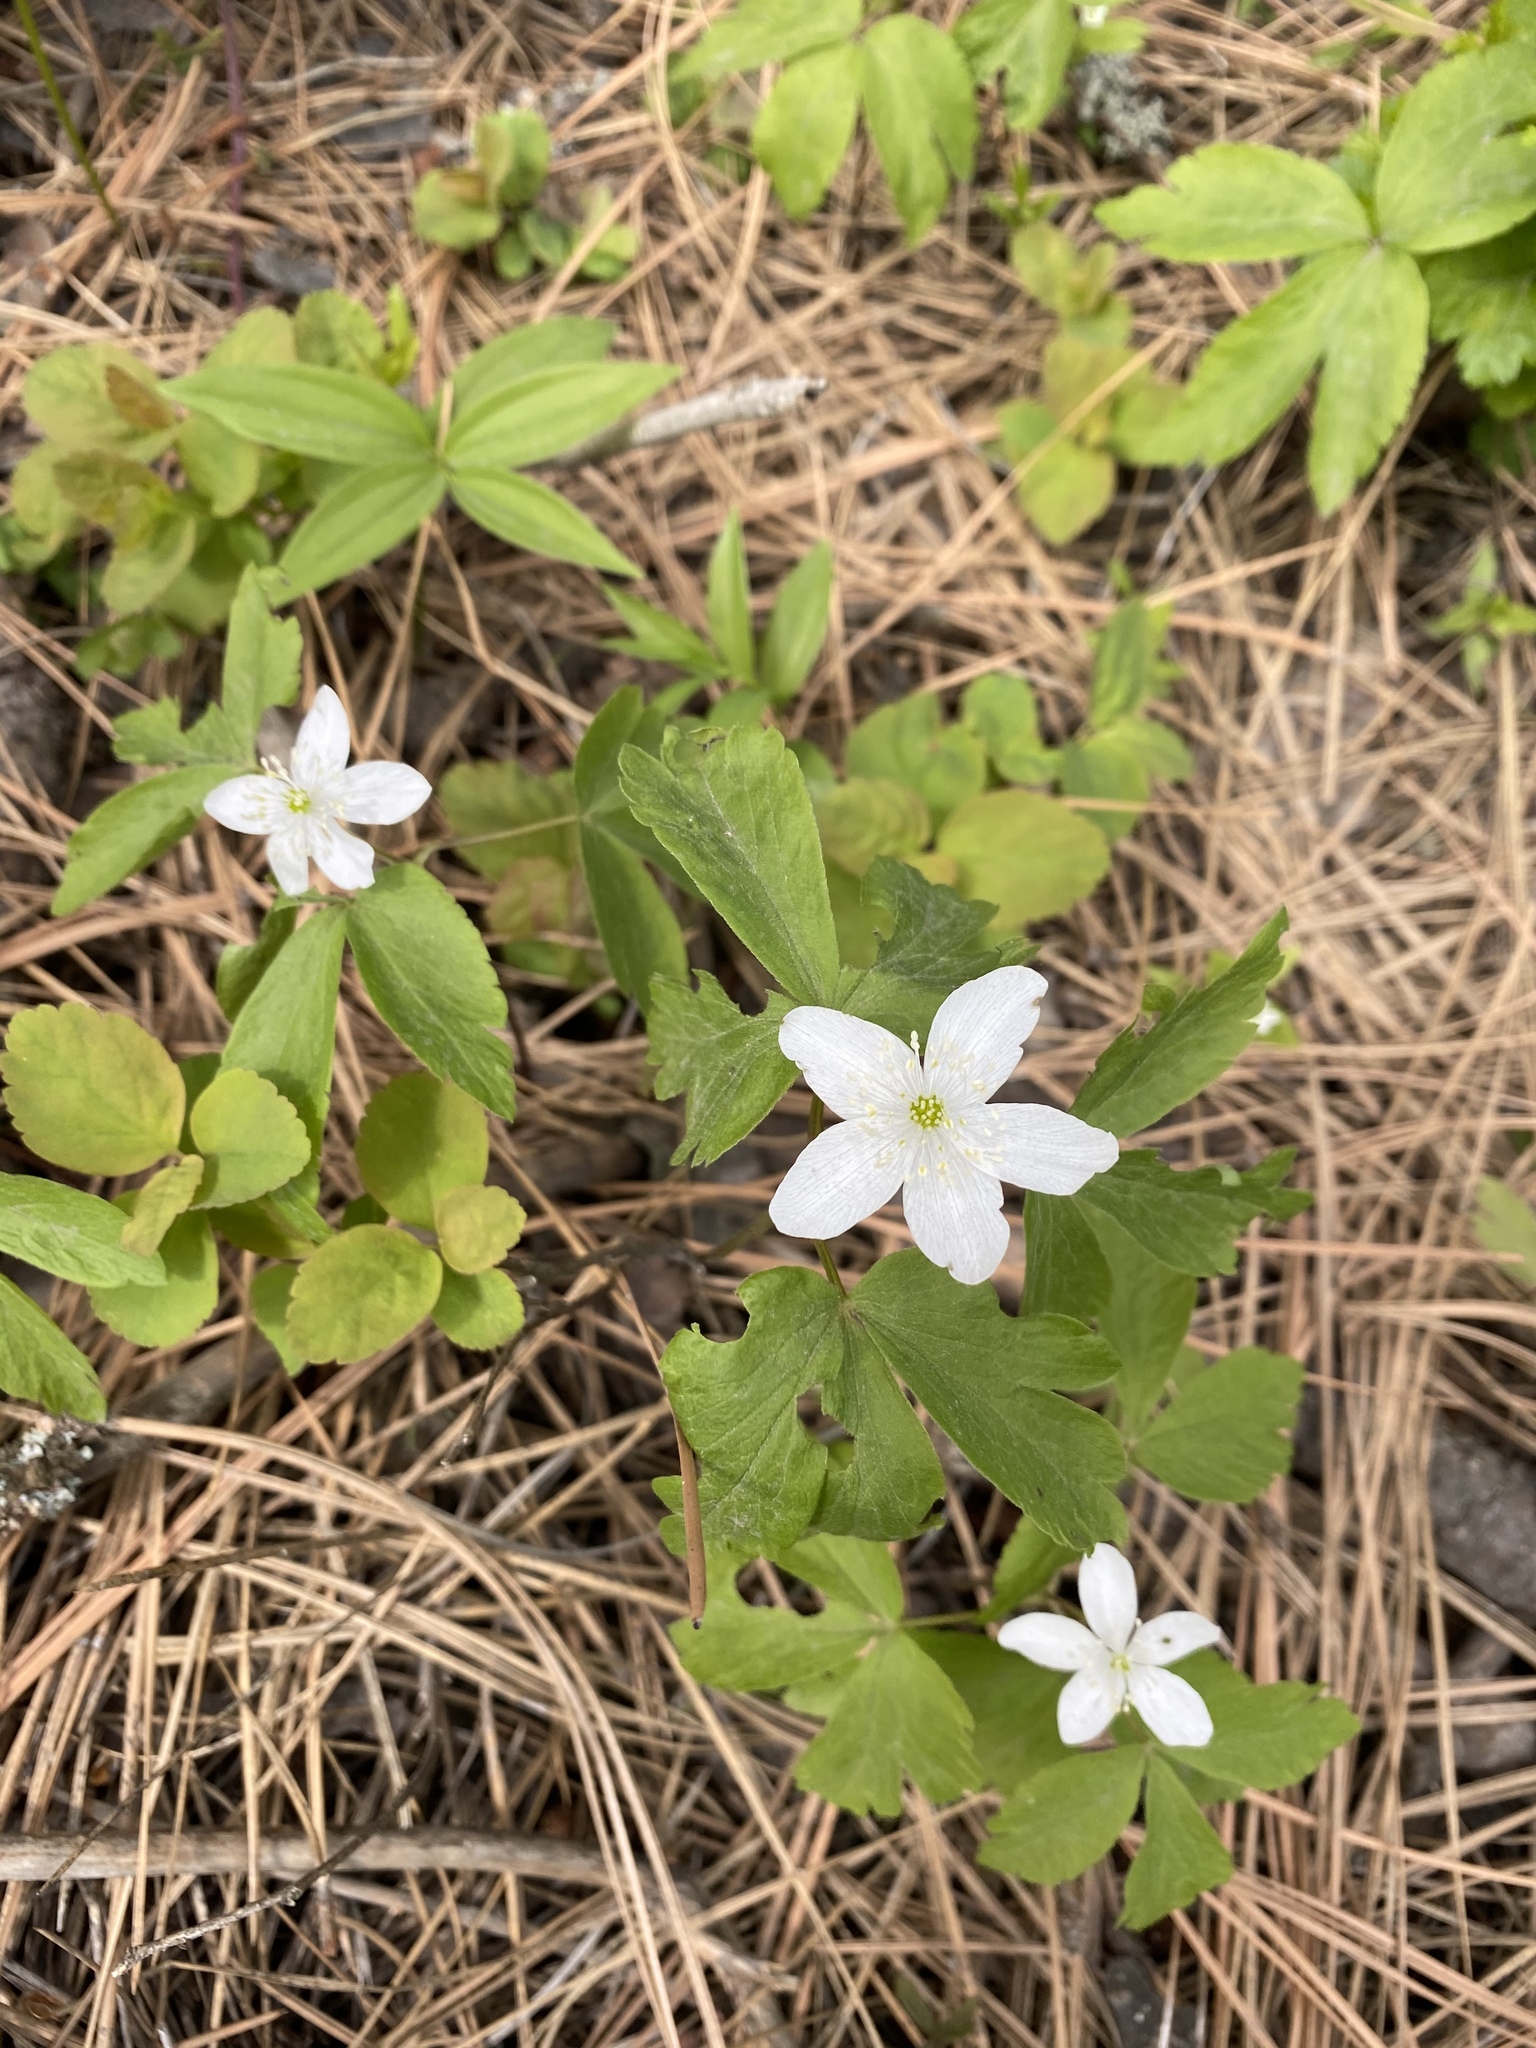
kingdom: Plantae
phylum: Tracheophyta
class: Magnoliopsida
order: Ranunculales
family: Ranunculaceae
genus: Anemone
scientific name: Anemone piperi
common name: Piper's anemone
